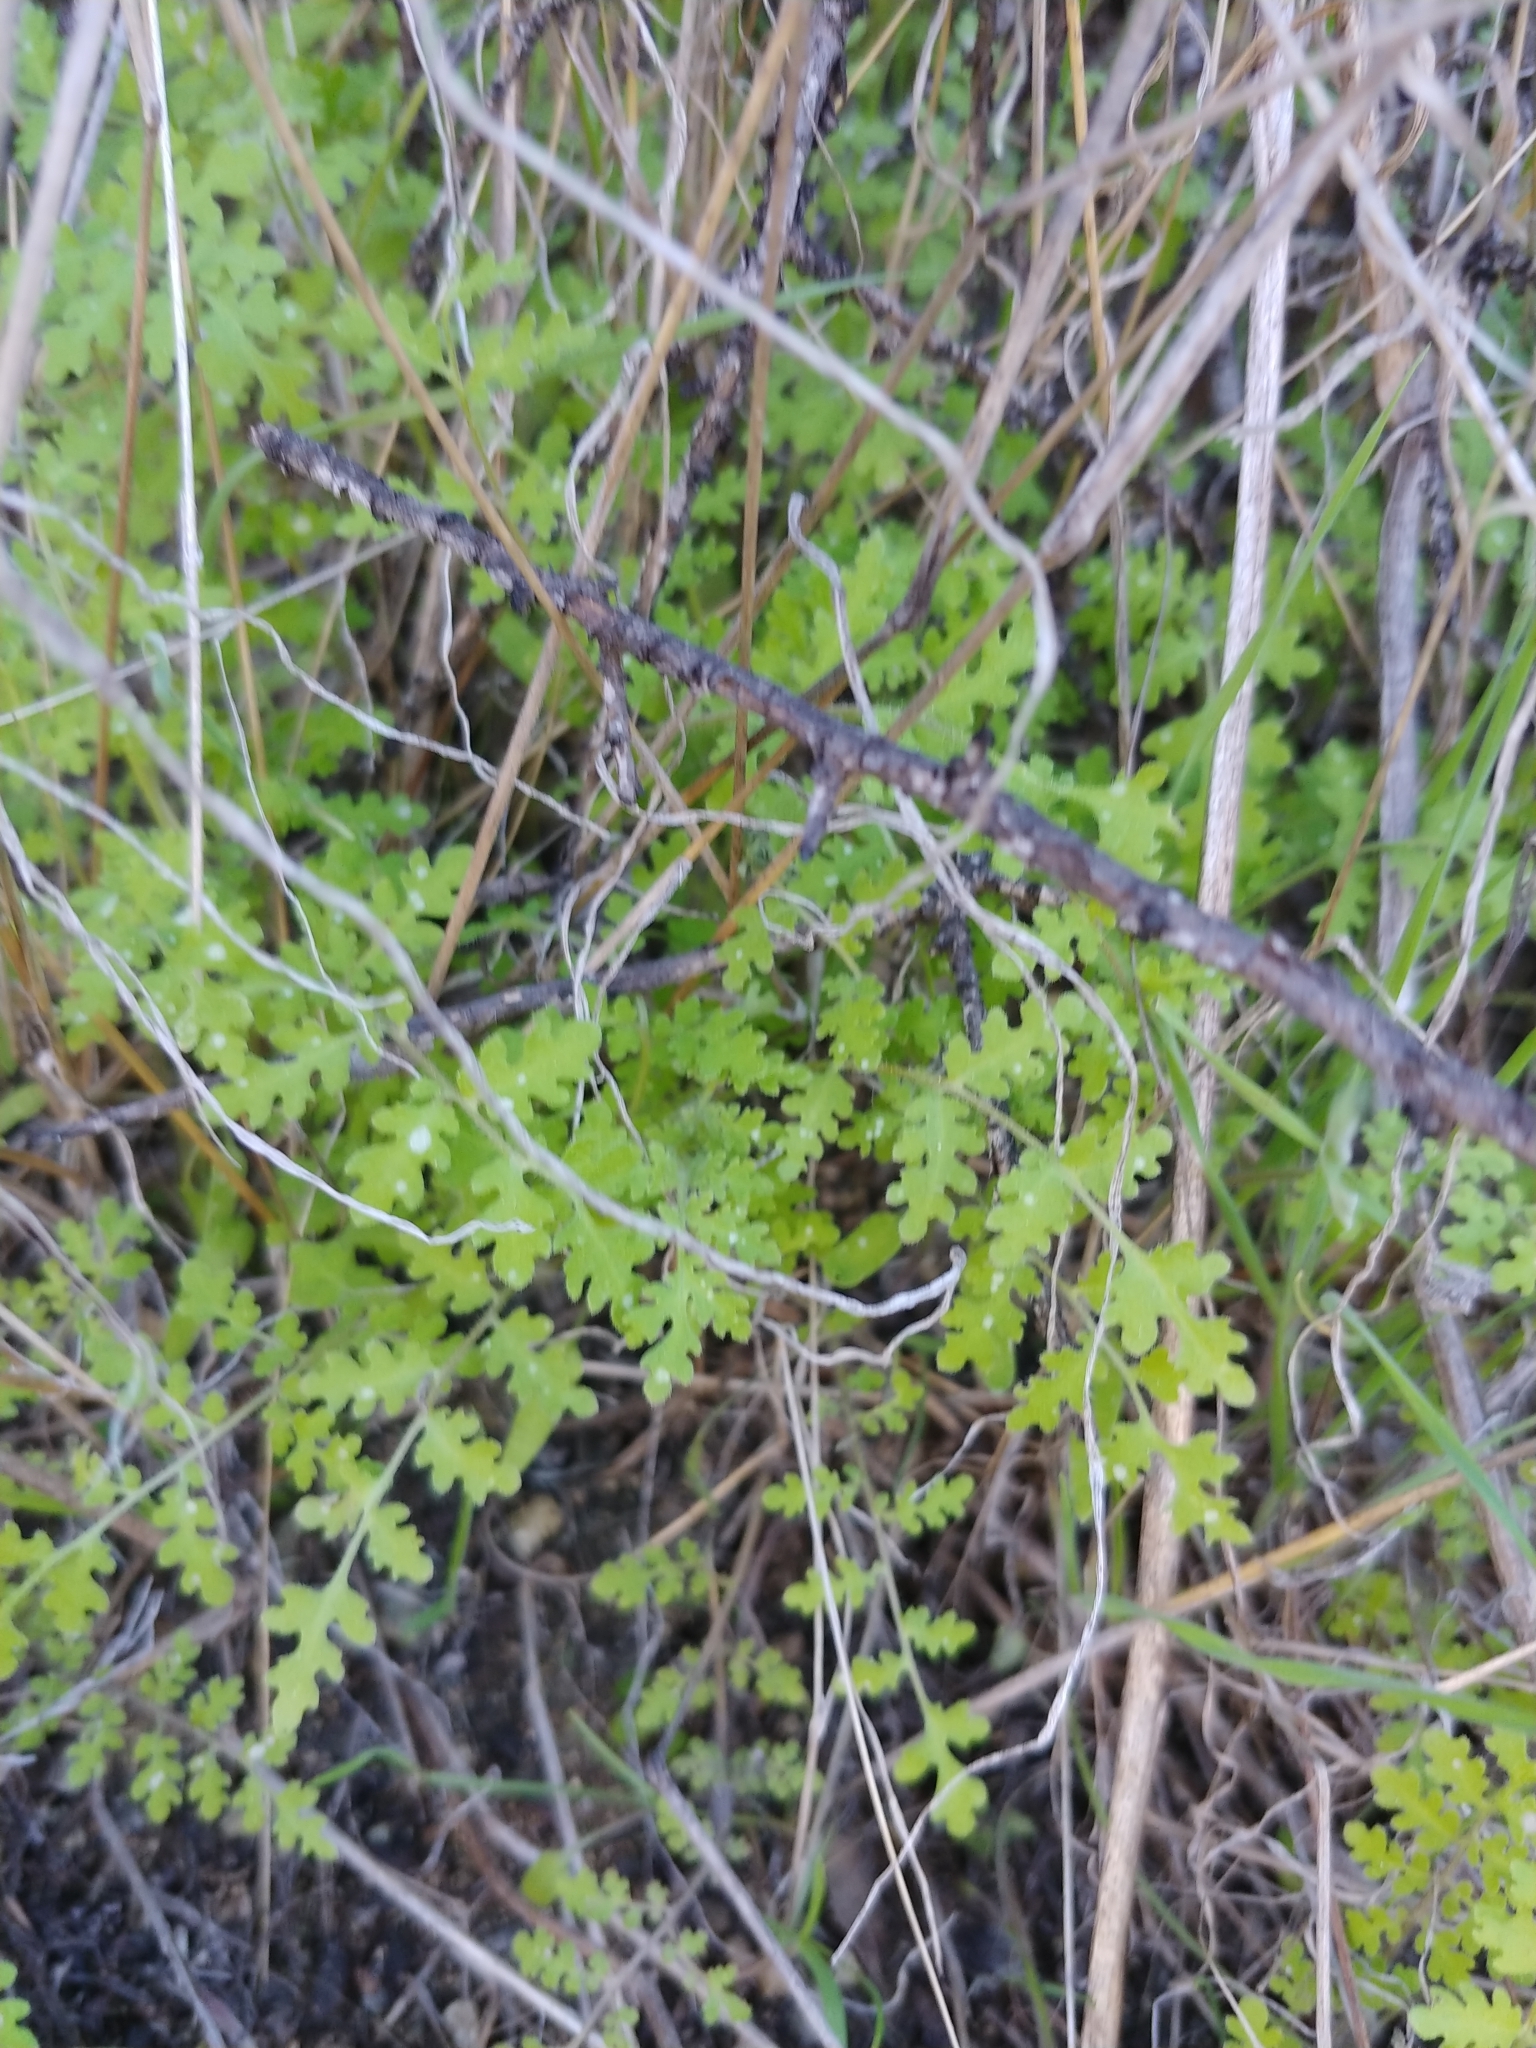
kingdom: Plantae
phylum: Tracheophyta
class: Magnoliopsida
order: Boraginales
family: Hydrophyllaceae
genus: Eucrypta
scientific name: Eucrypta chrysanthemifolia
